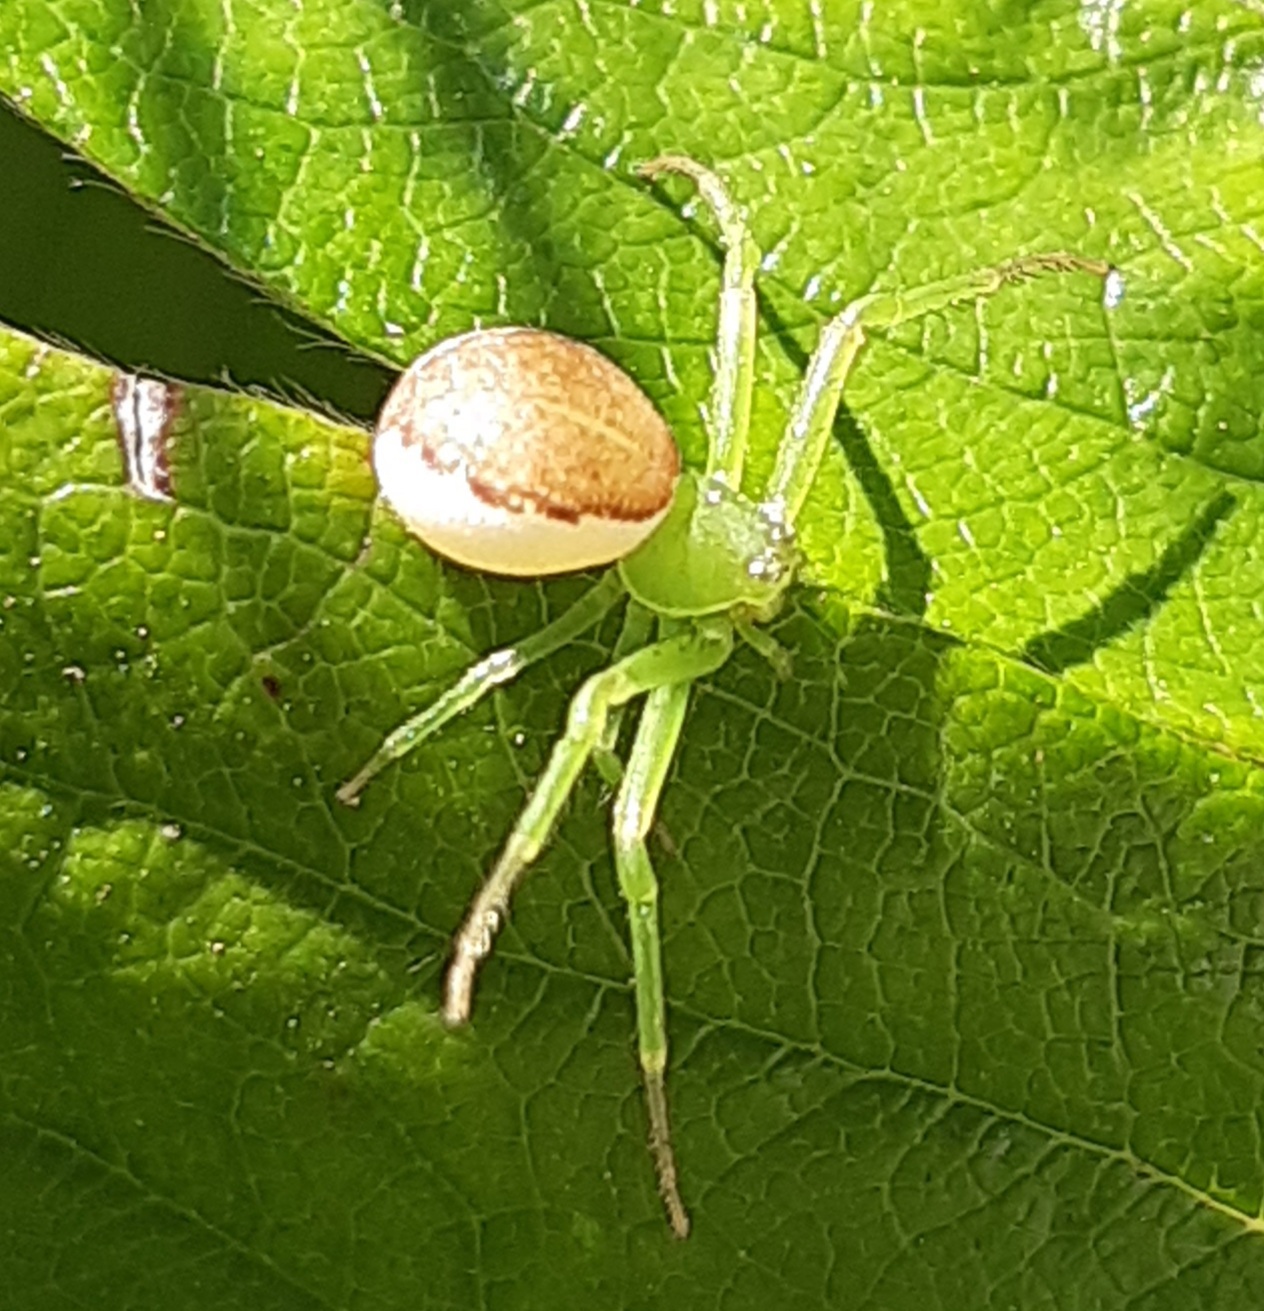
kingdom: Animalia
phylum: Arthropoda
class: Arachnida
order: Araneae
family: Thomisidae
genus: Diaea
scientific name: Diaea dorsata
